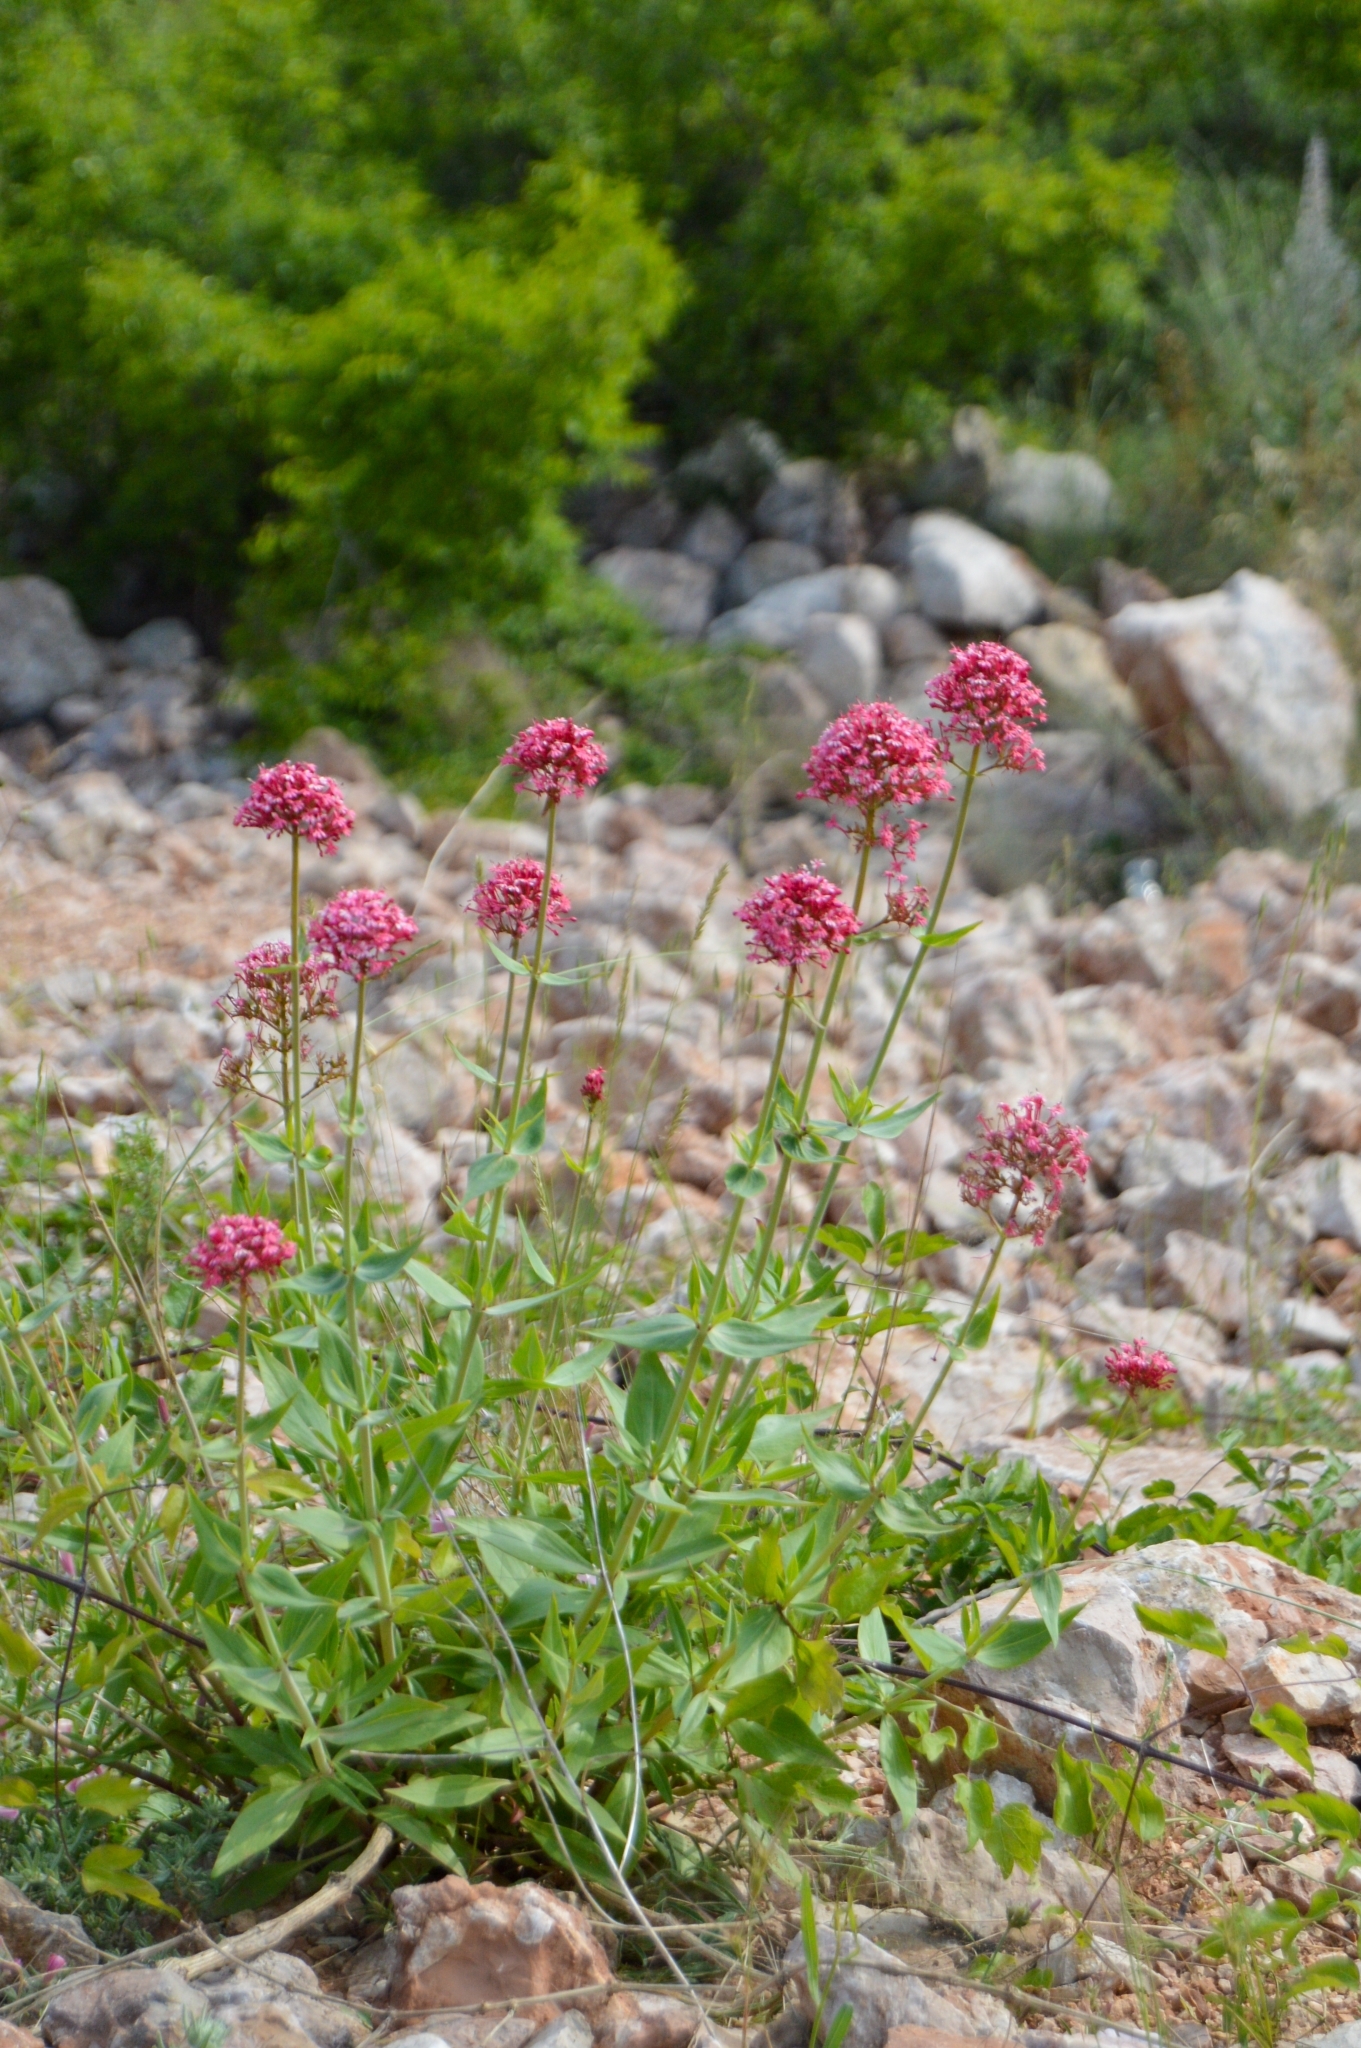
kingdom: Plantae
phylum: Tracheophyta
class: Magnoliopsida
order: Dipsacales
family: Caprifoliaceae
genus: Centranthus
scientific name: Centranthus ruber
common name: Red valerian
